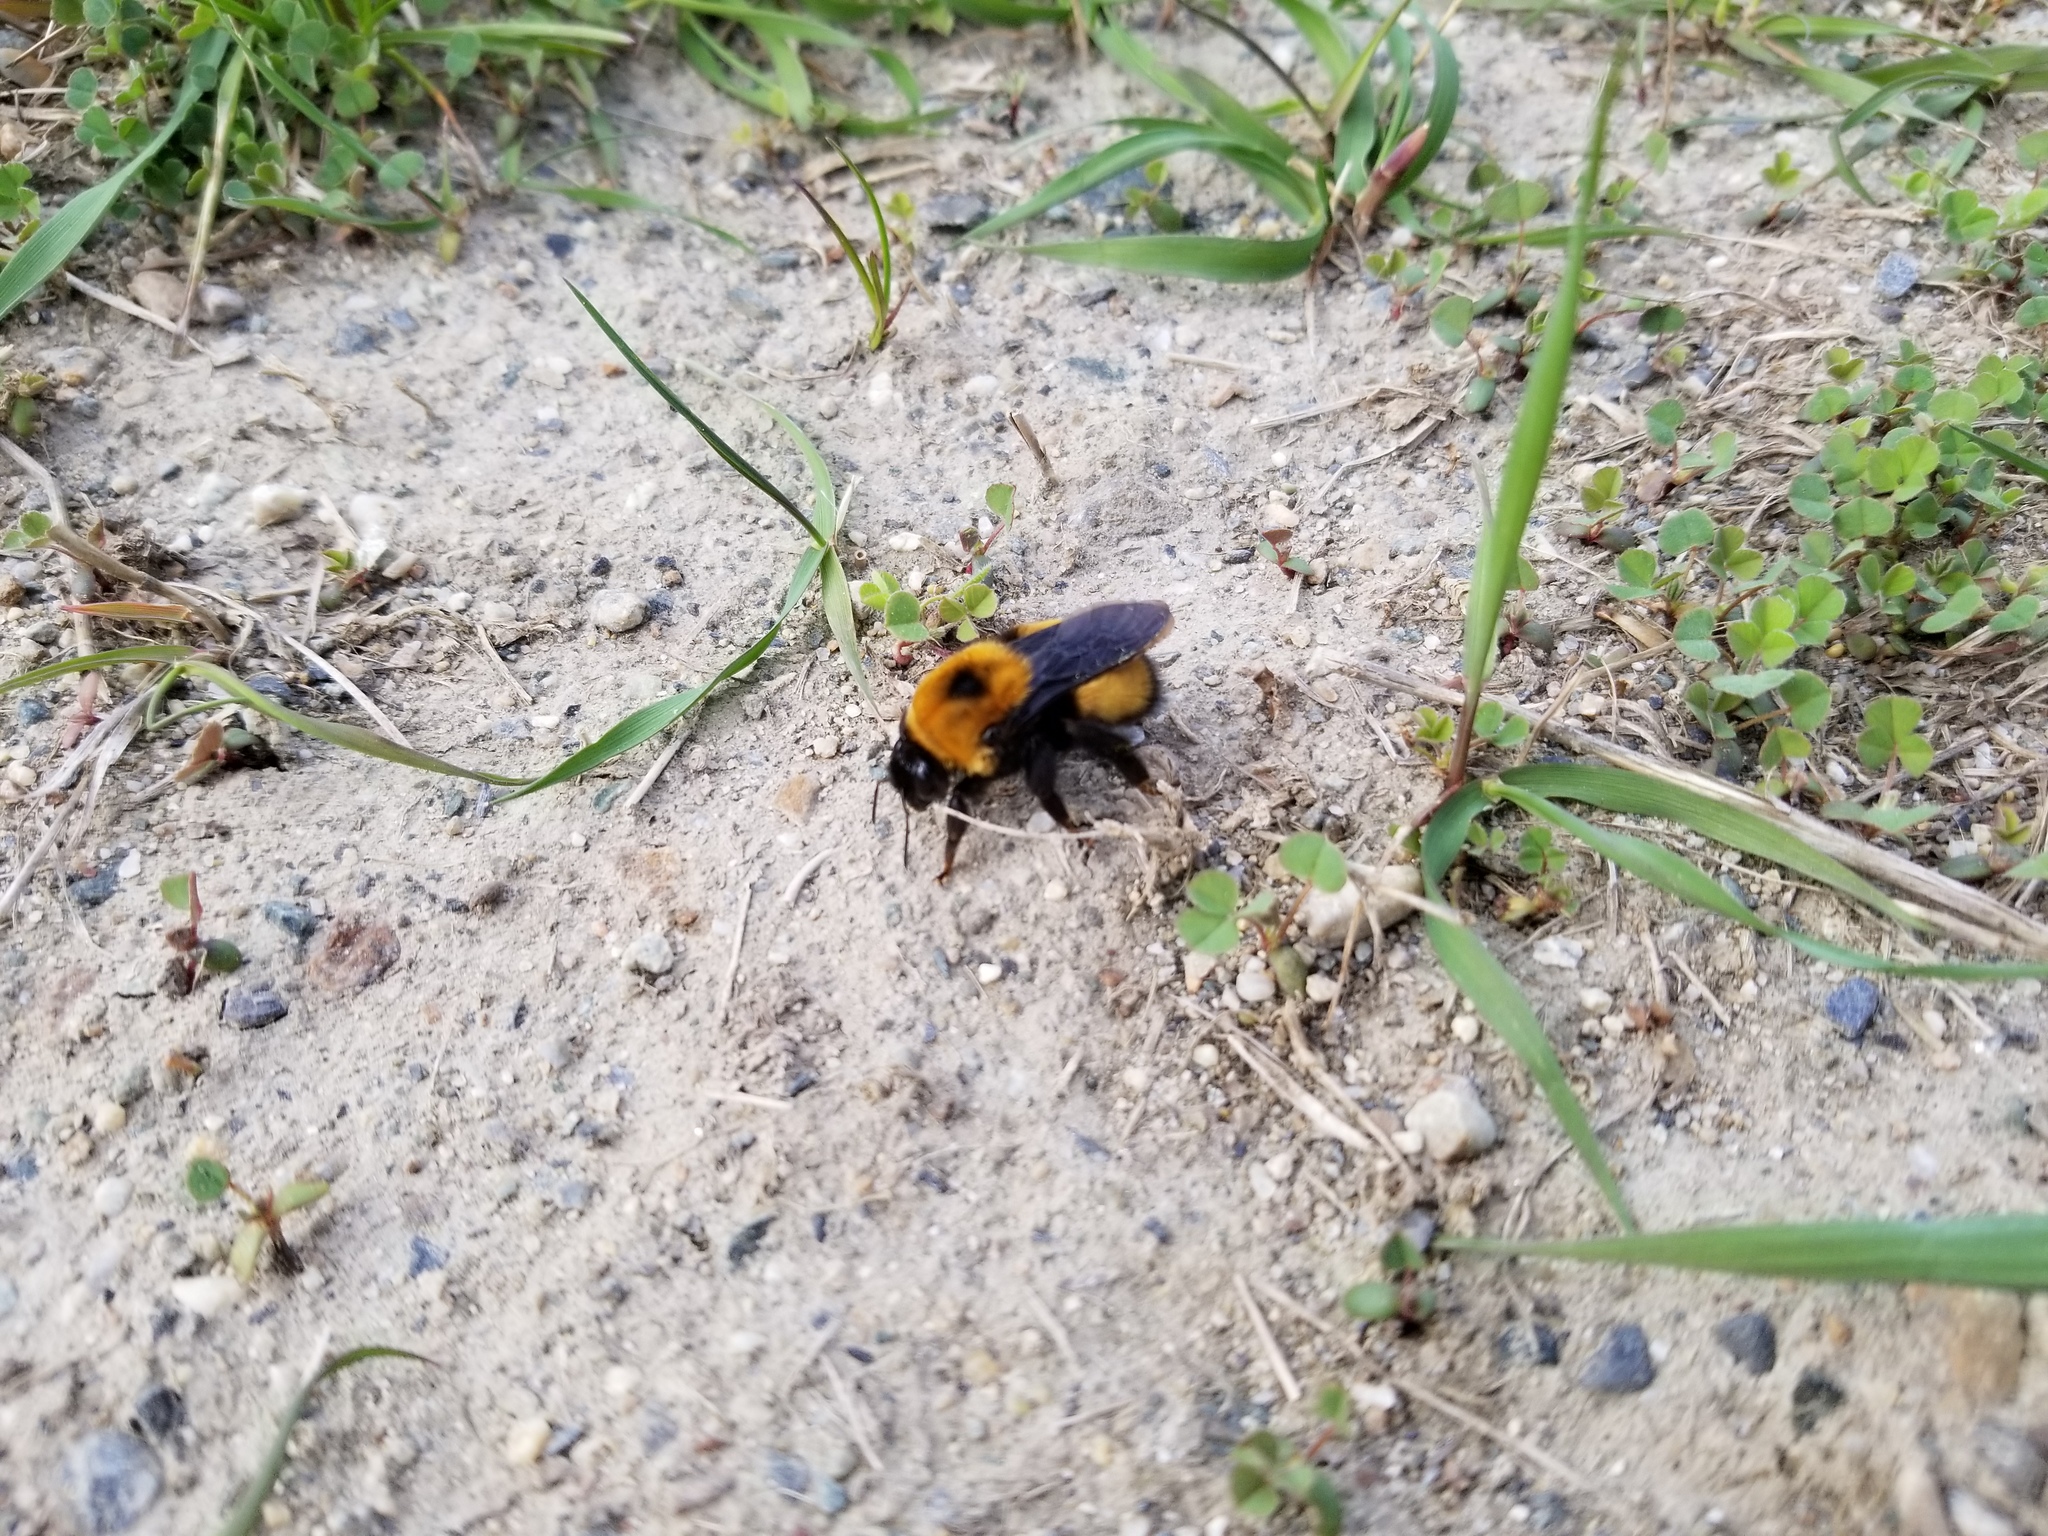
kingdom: Animalia
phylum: Arthropoda
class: Insecta
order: Hymenoptera
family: Apidae
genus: Bombus
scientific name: Bombus nevadensis
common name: Nevada bumble bee
